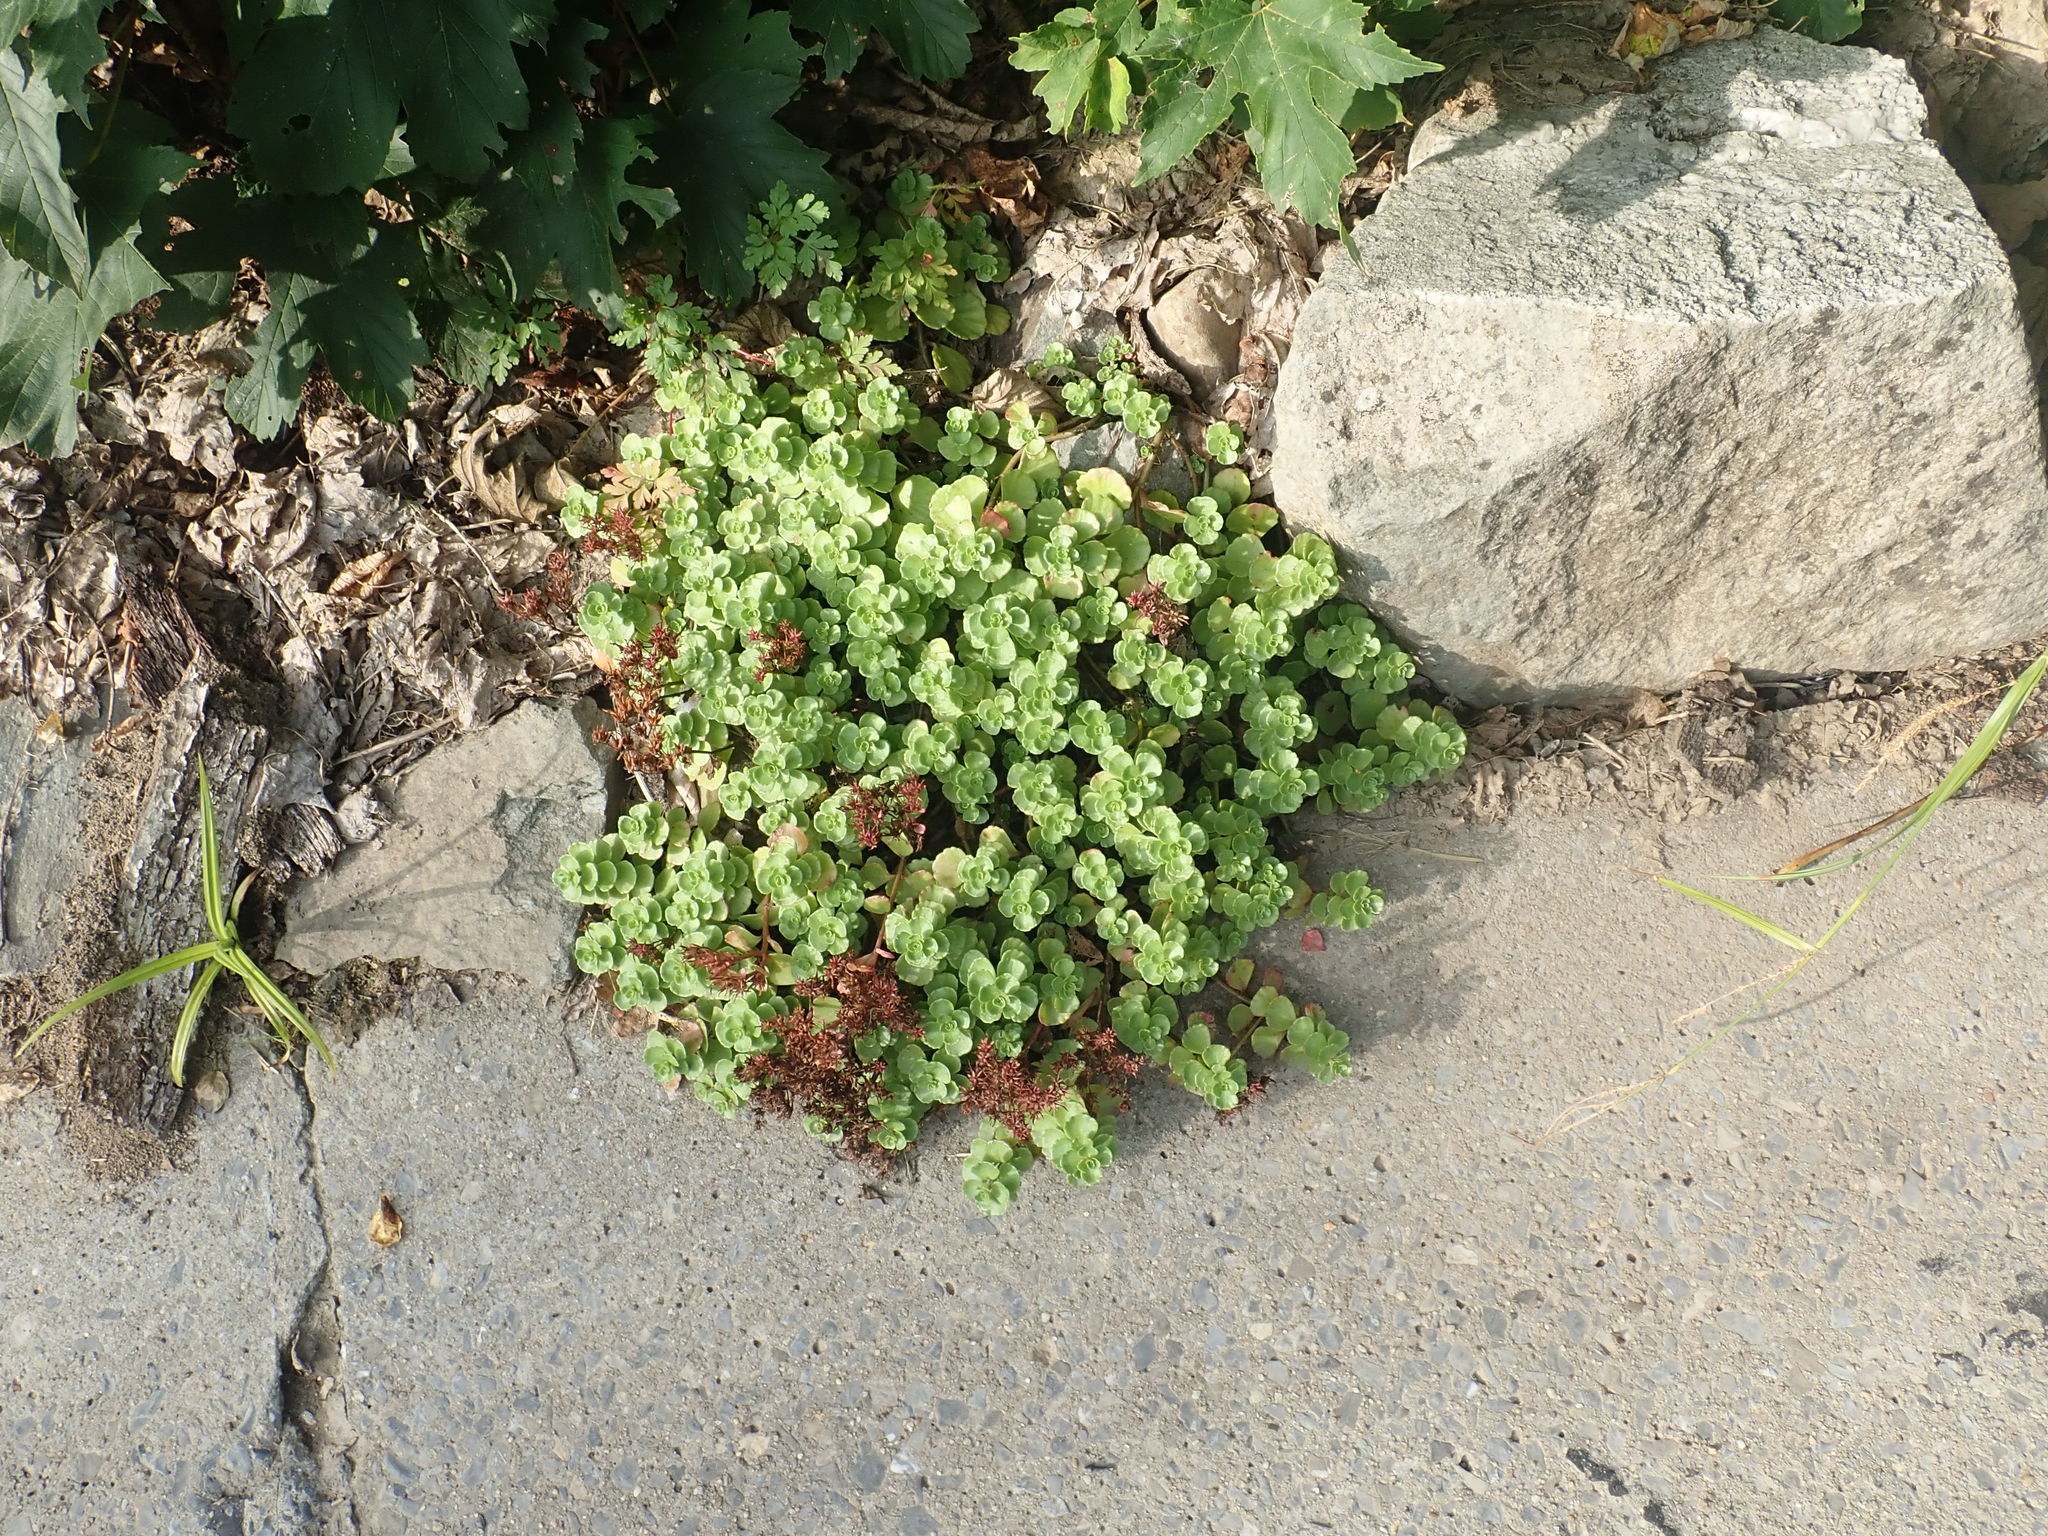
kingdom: Plantae
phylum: Tracheophyta
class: Magnoliopsida
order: Saxifragales
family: Crassulaceae
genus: Phedimus
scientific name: Phedimus spurius
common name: Caucasian stonecrop
